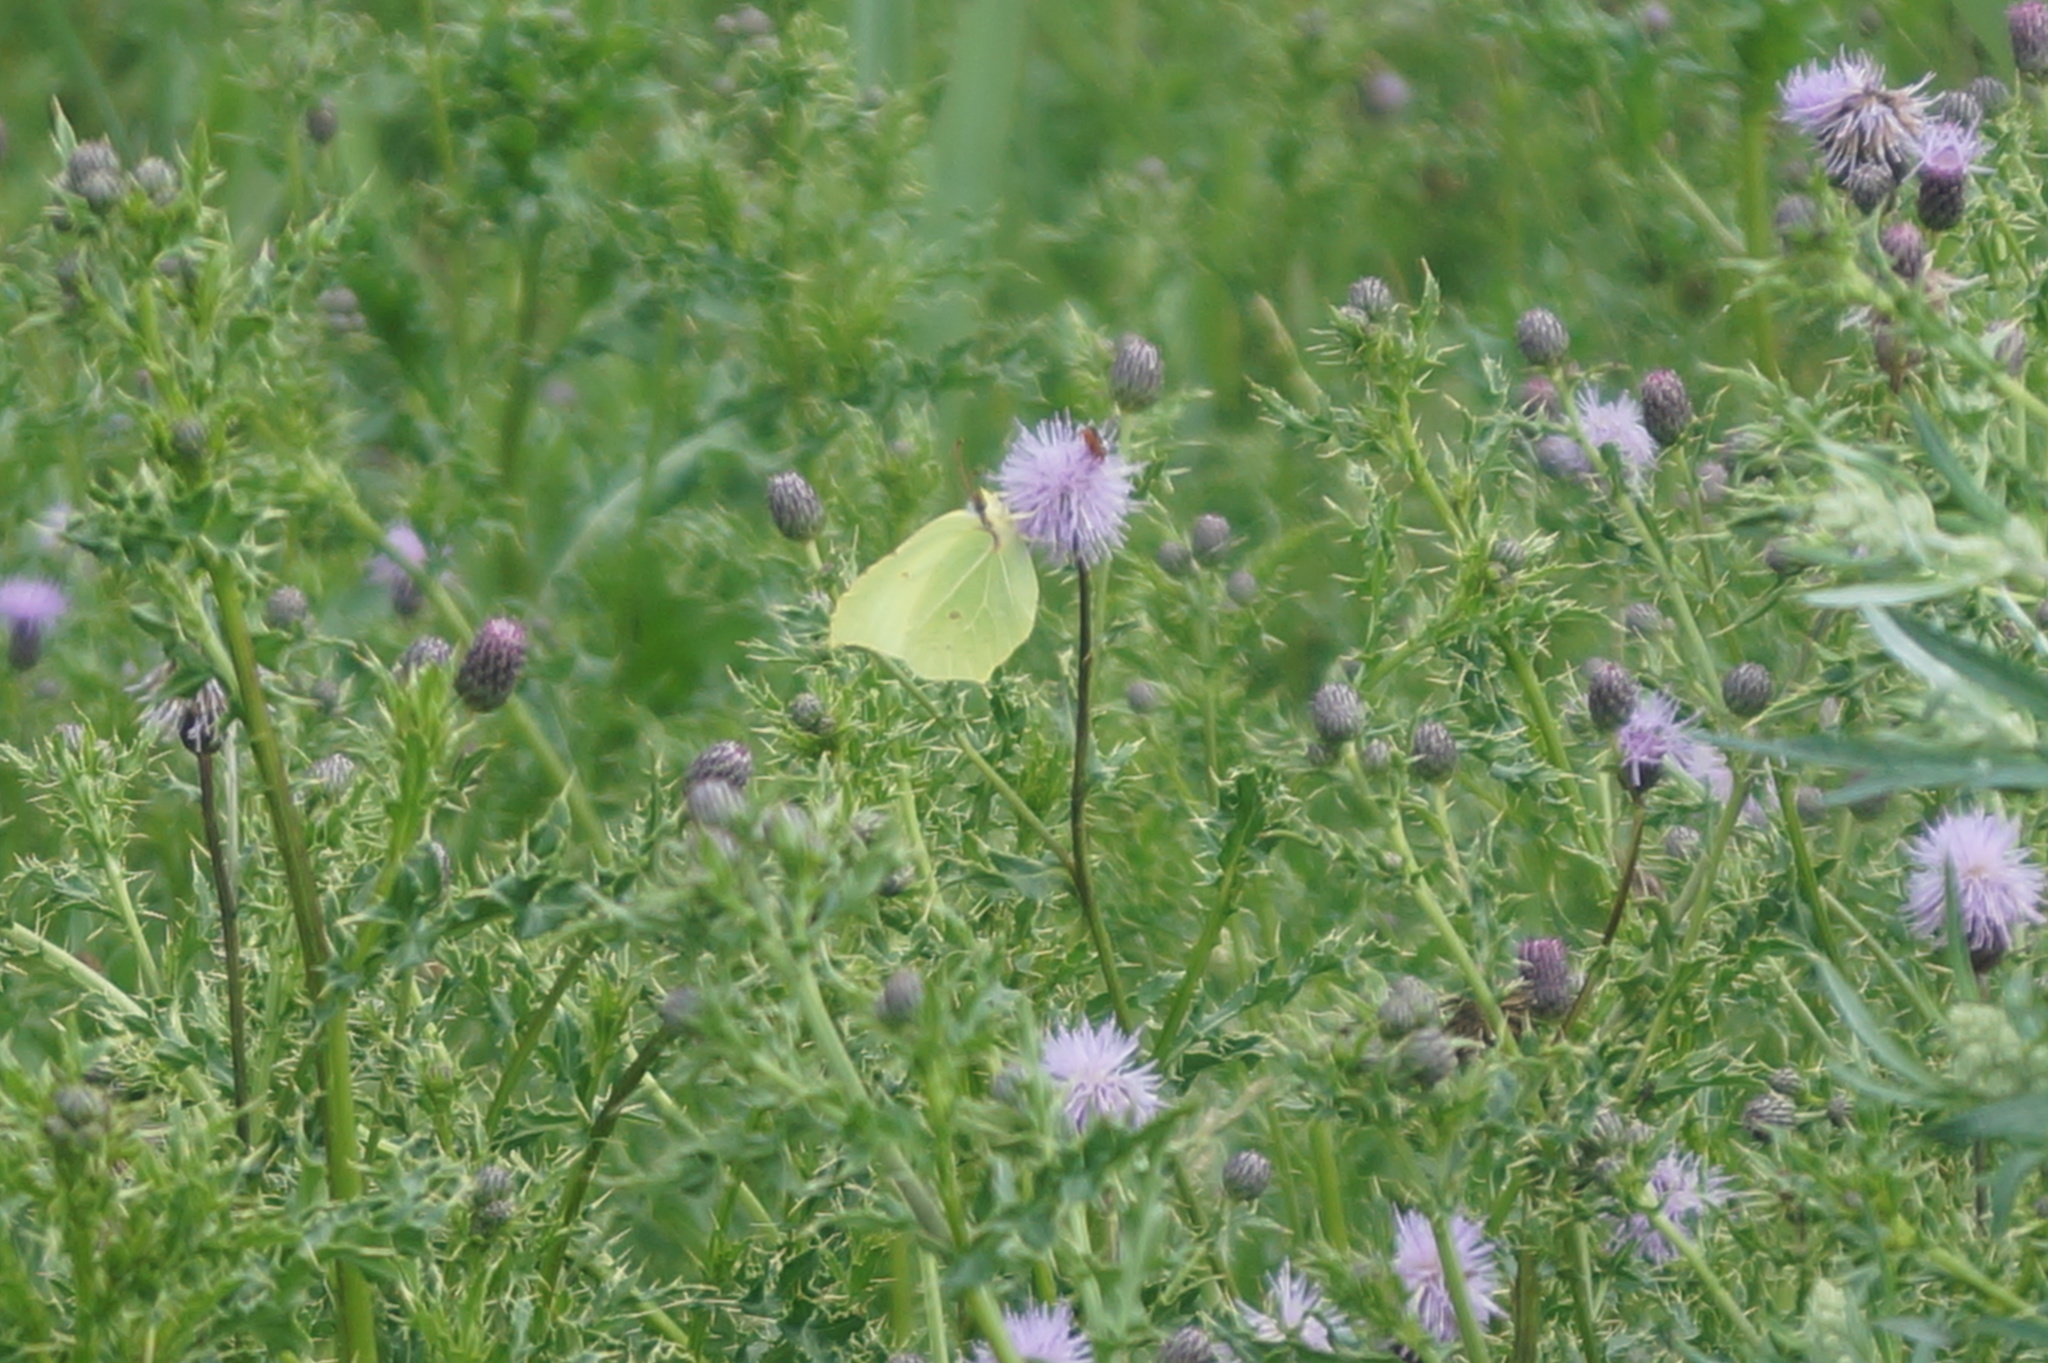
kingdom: Animalia
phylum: Arthropoda
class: Insecta
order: Lepidoptera
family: Pieridae
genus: Gonepteryx
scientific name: Gonepteryx rhamni
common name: Brimstone
